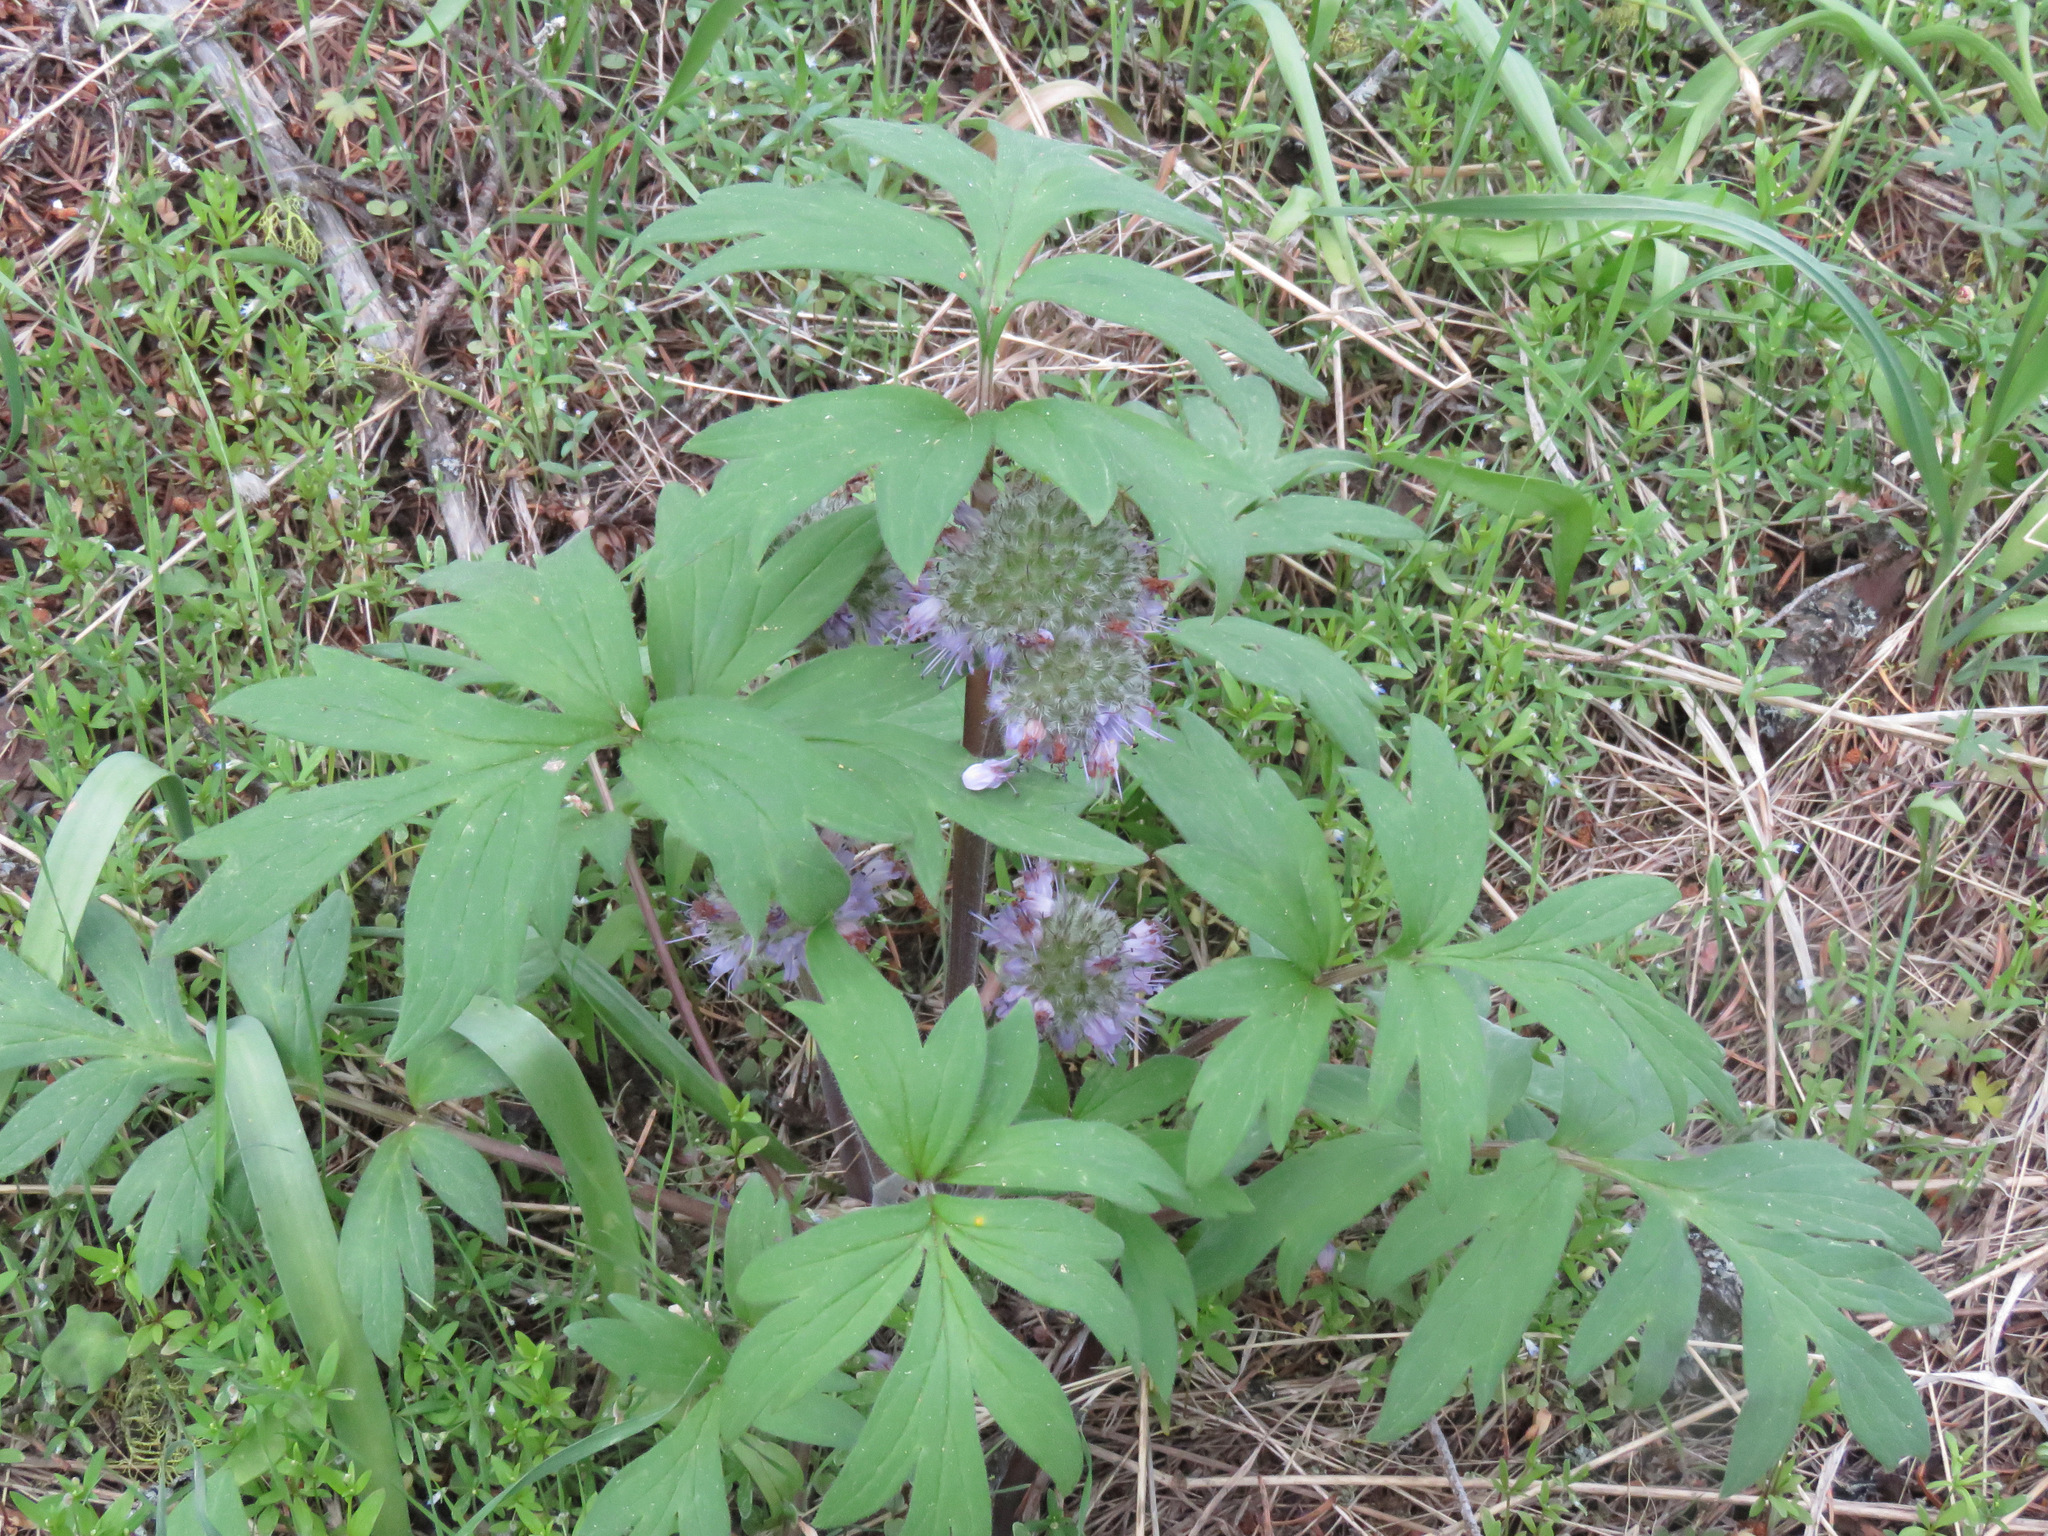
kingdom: Plantae
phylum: Tracheophyta
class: Magnoliopsida
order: Boraginales
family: Hydrophyllaceae
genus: Hydrophyllum
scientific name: Hydrophyllum capitatum
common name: Woollen-breeches
